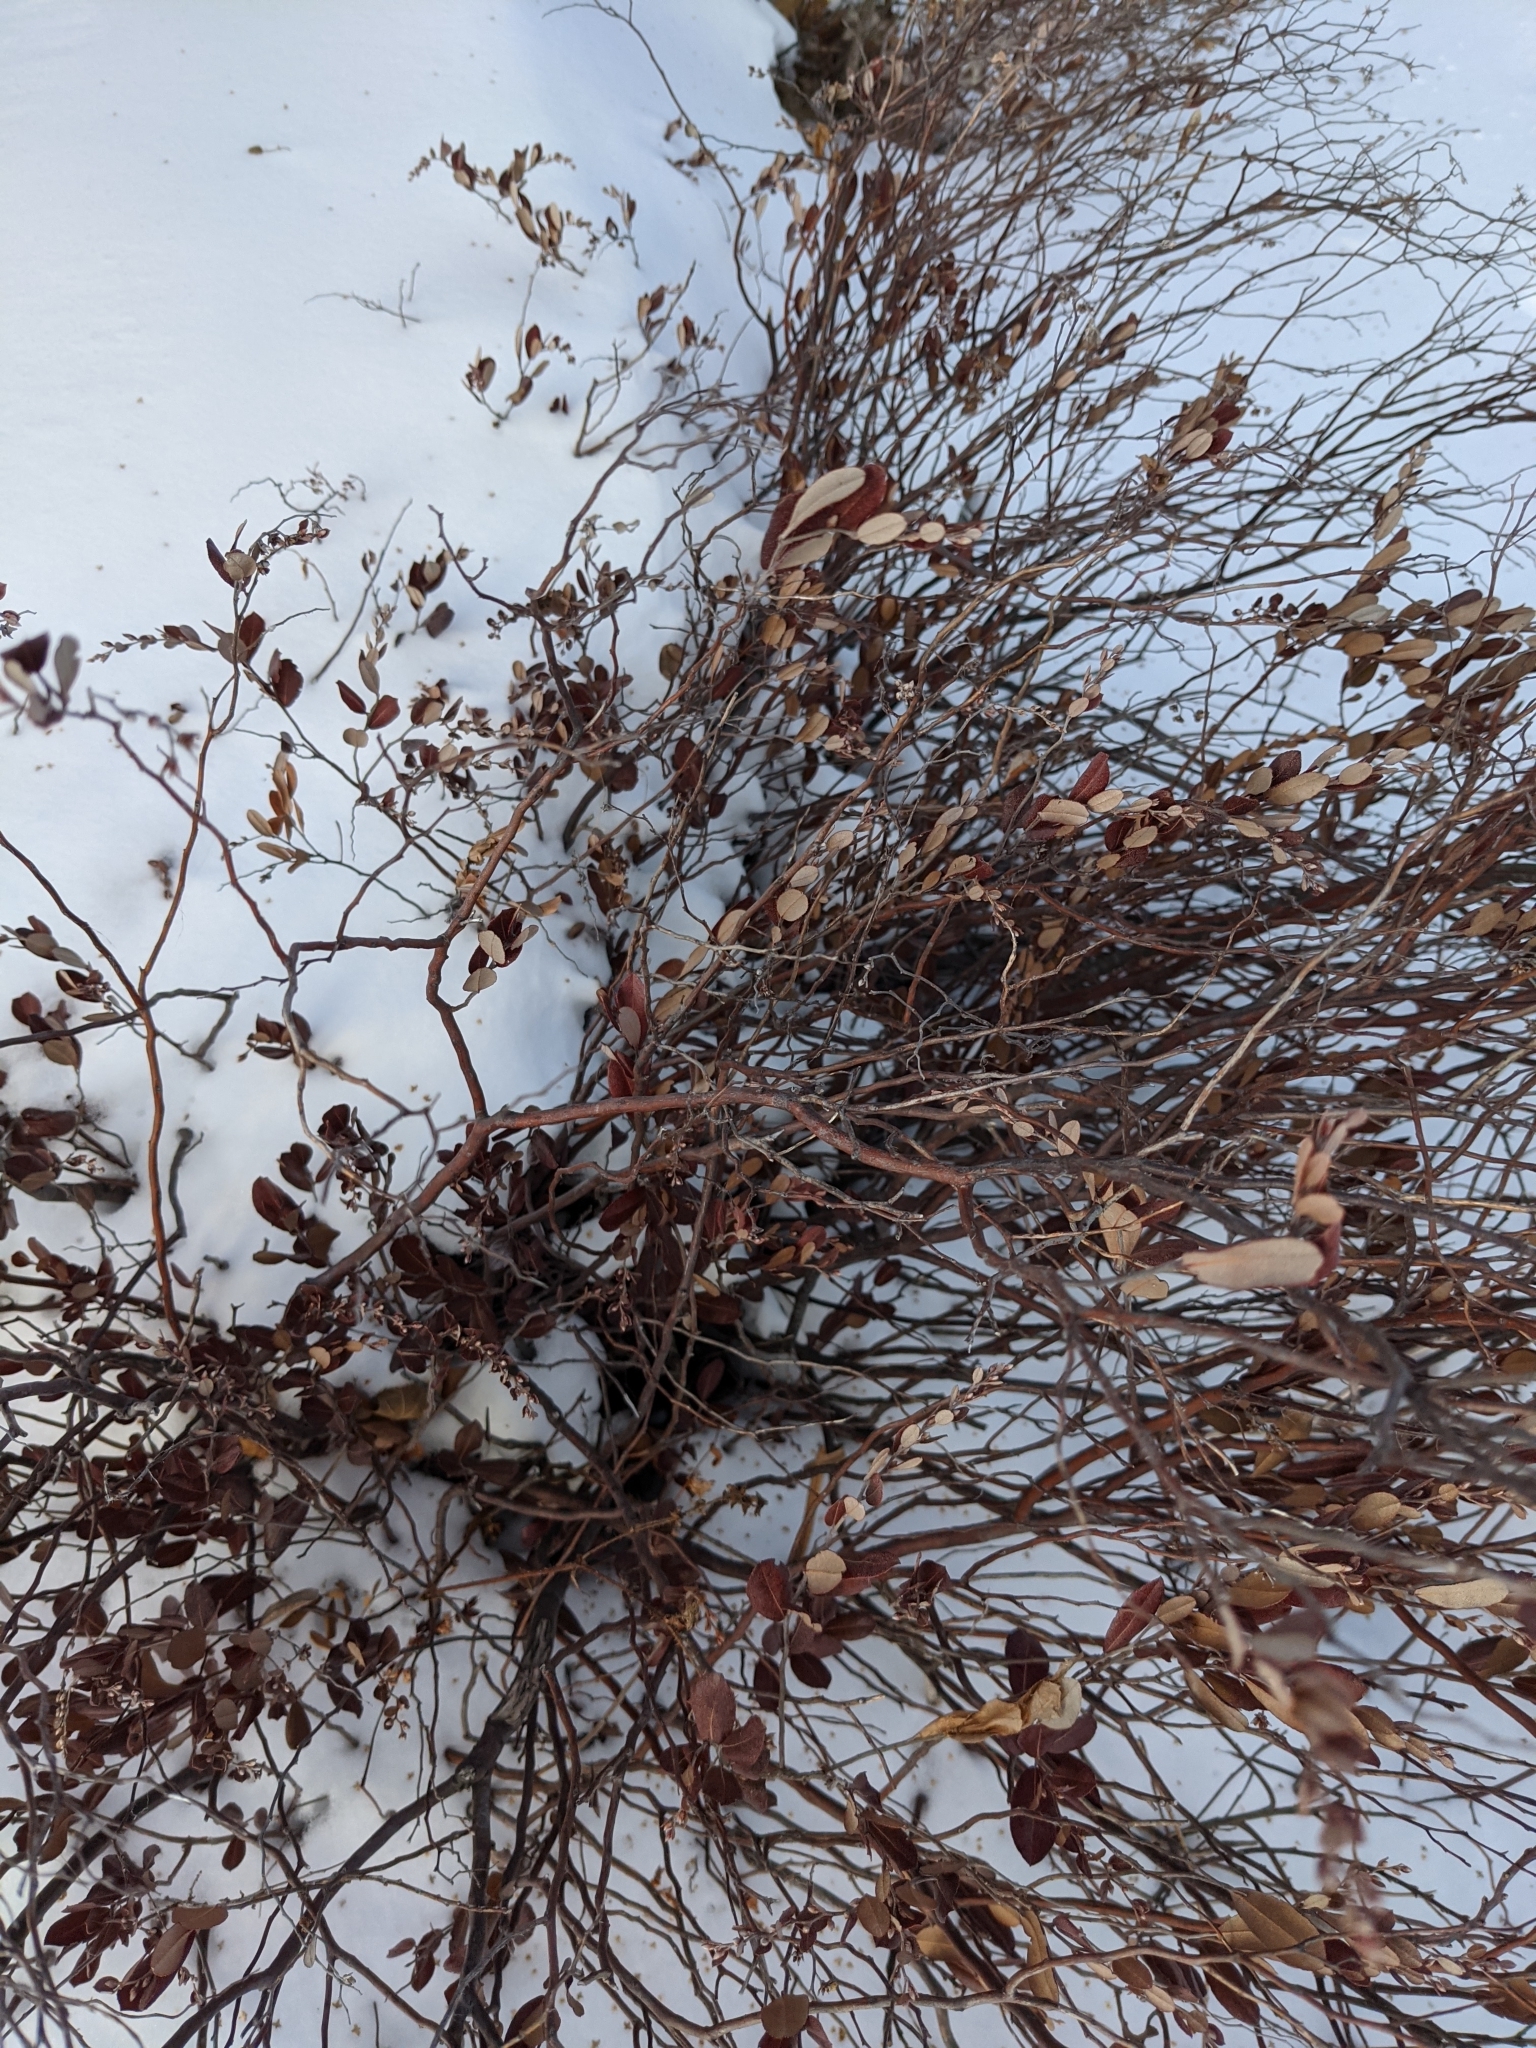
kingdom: Plantae
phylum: Tracheophyta
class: Magnoliopsida
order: Ericales
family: Ericaceae
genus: Chamaedaphne
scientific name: Chamaedaphne calyculata
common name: Leatherleaf
